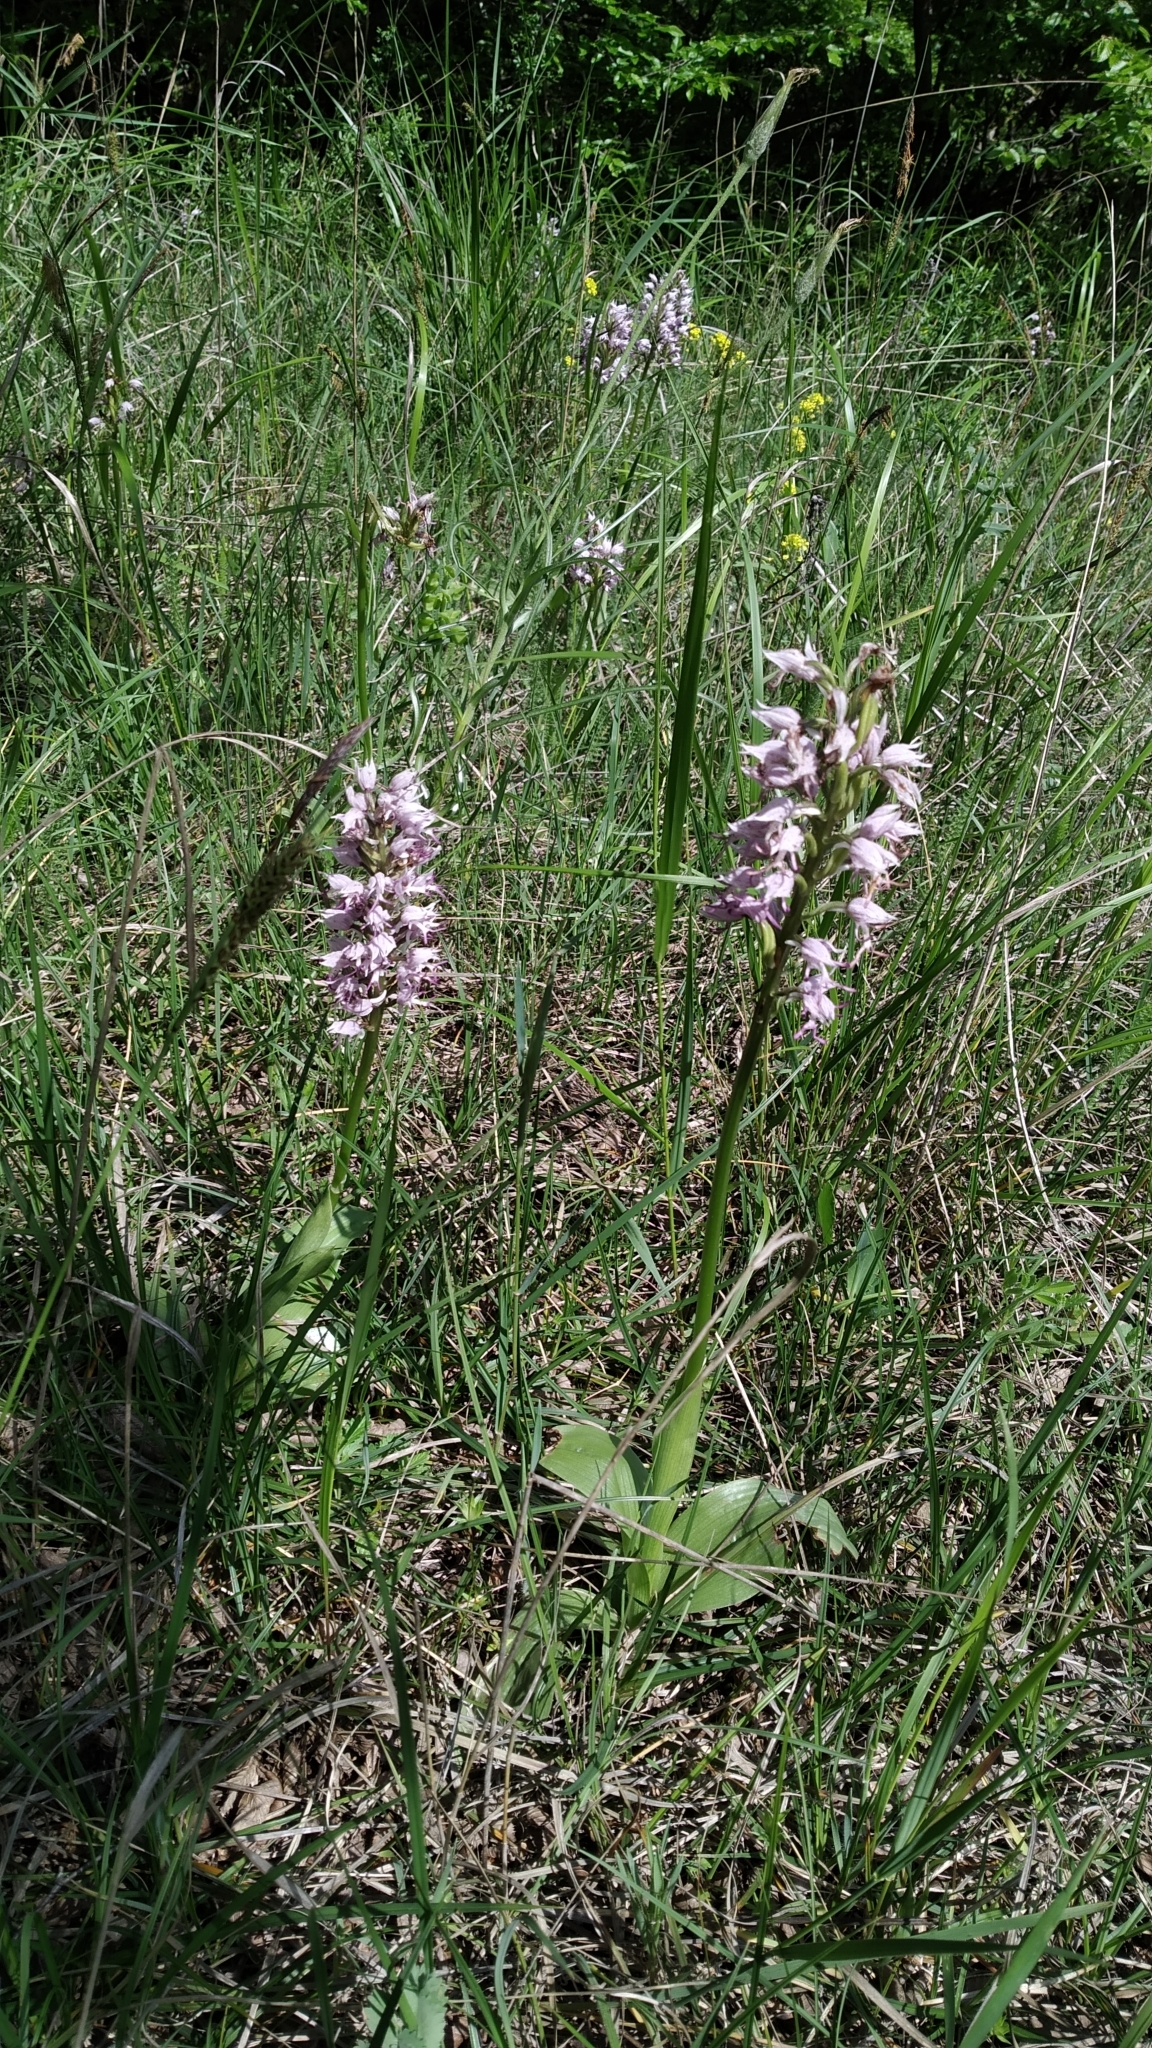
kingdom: Plantae
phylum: Tracheophyta
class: Liliopsida
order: Asparagales
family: Orchidaceae
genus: Orchis
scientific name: Orchis simia
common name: Monkey orchid
